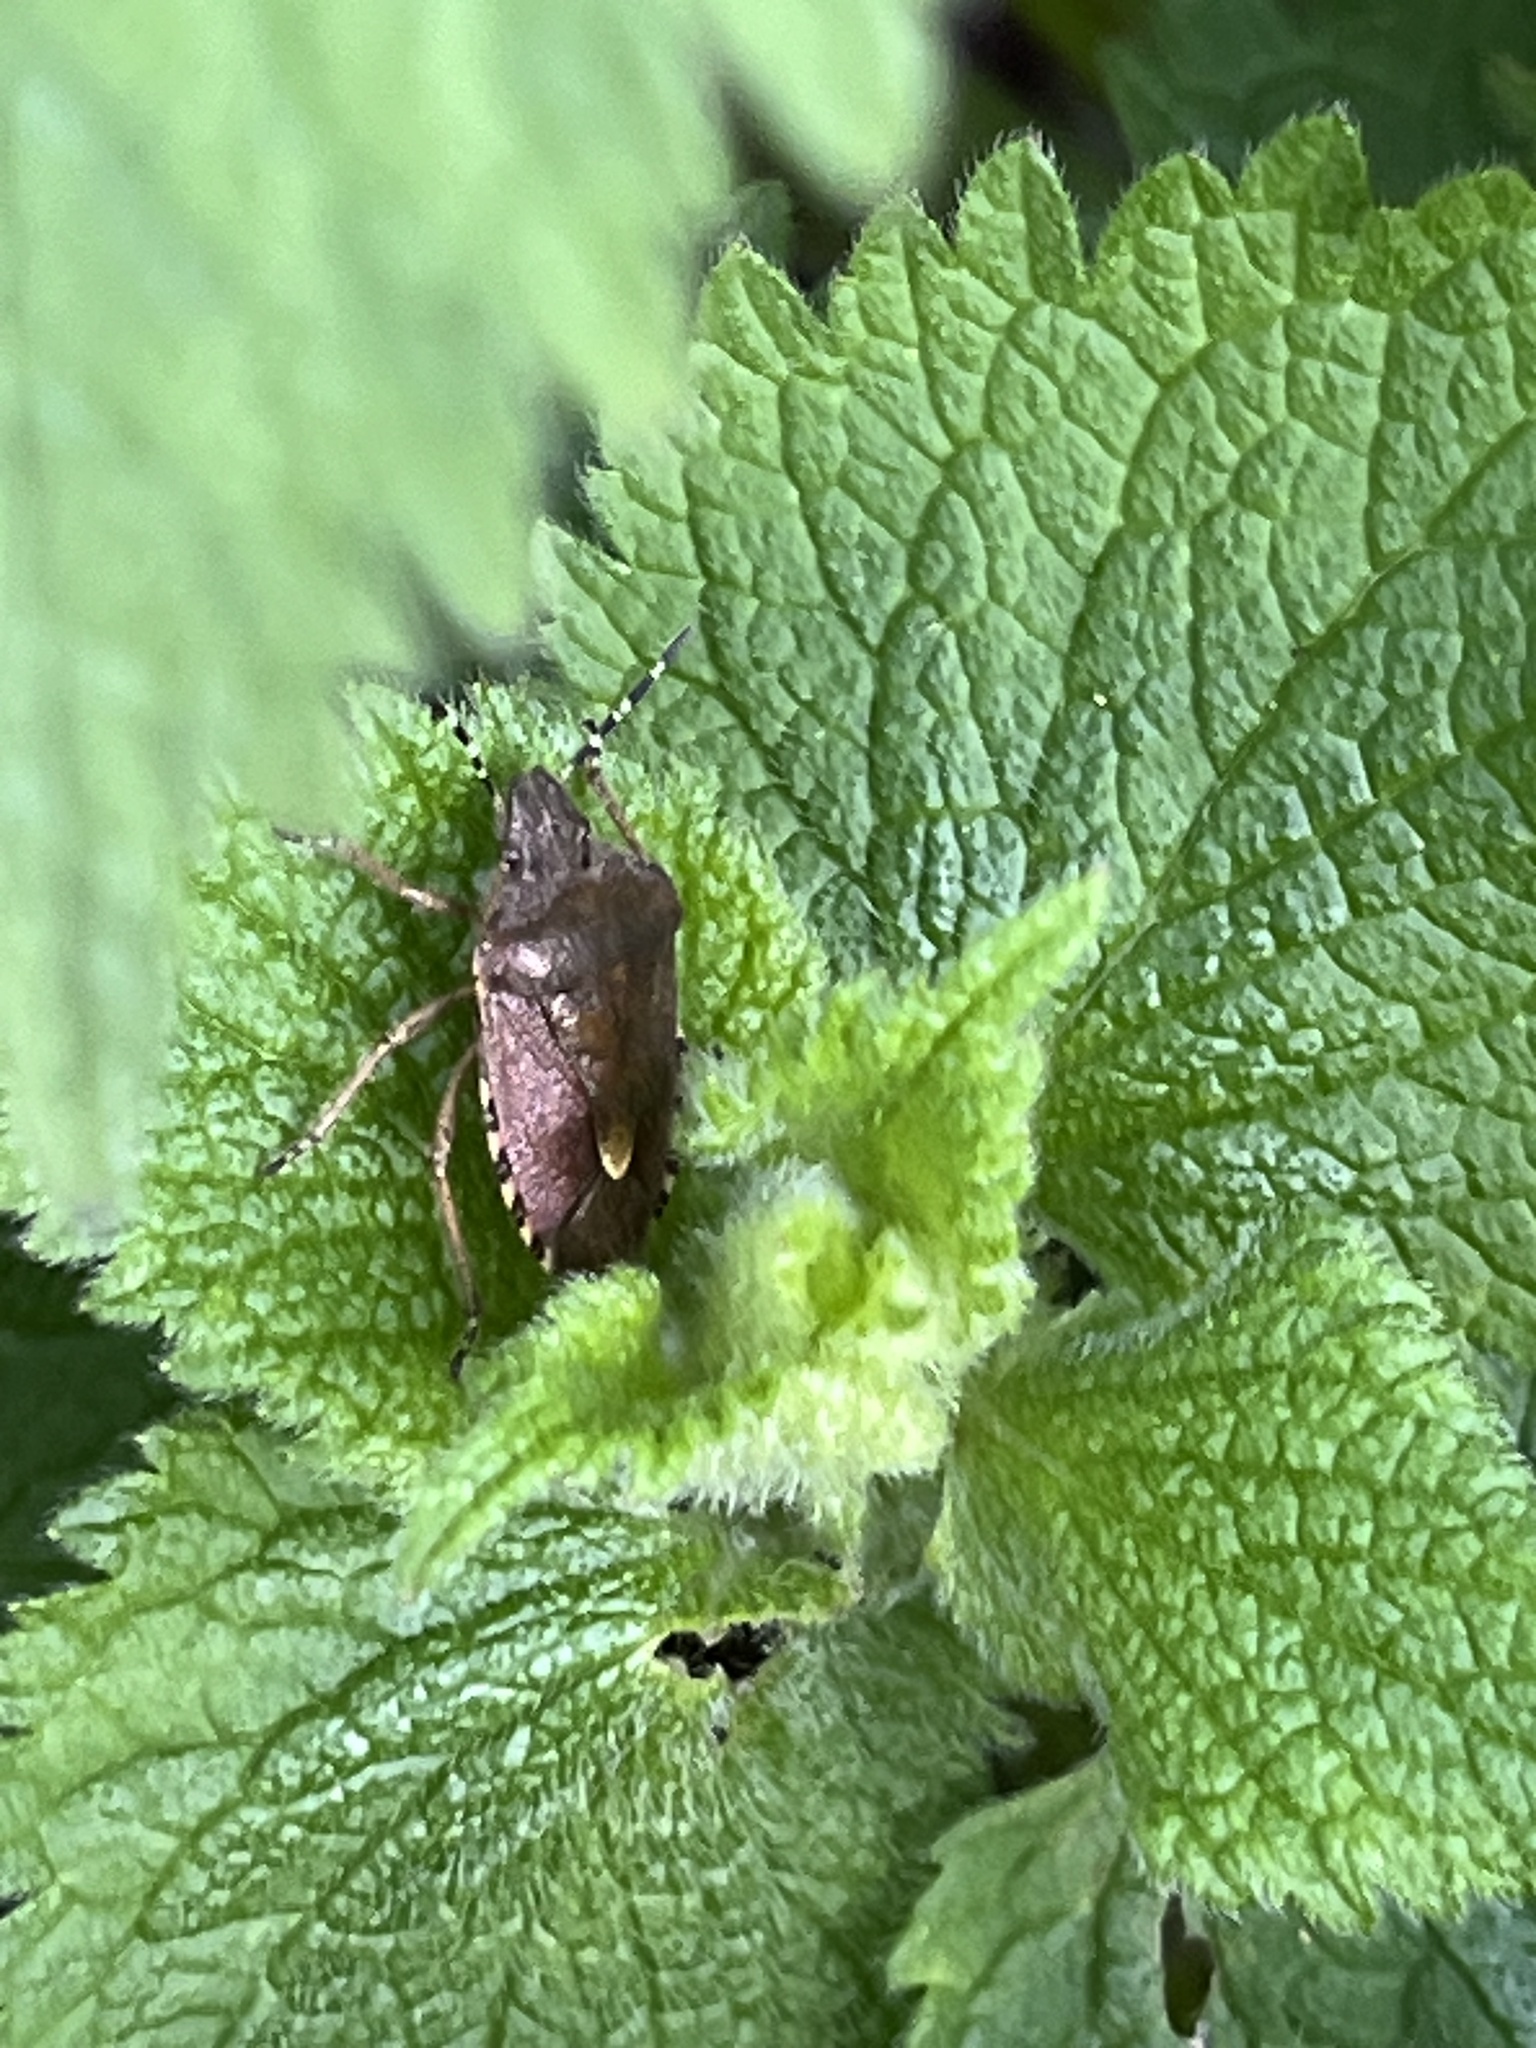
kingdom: Animalia
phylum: Arthropoda
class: Insecta
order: Hemiptera
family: Pentatomidae
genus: Dolycoris
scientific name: Dolycoris baccarum
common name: Sloe bug
